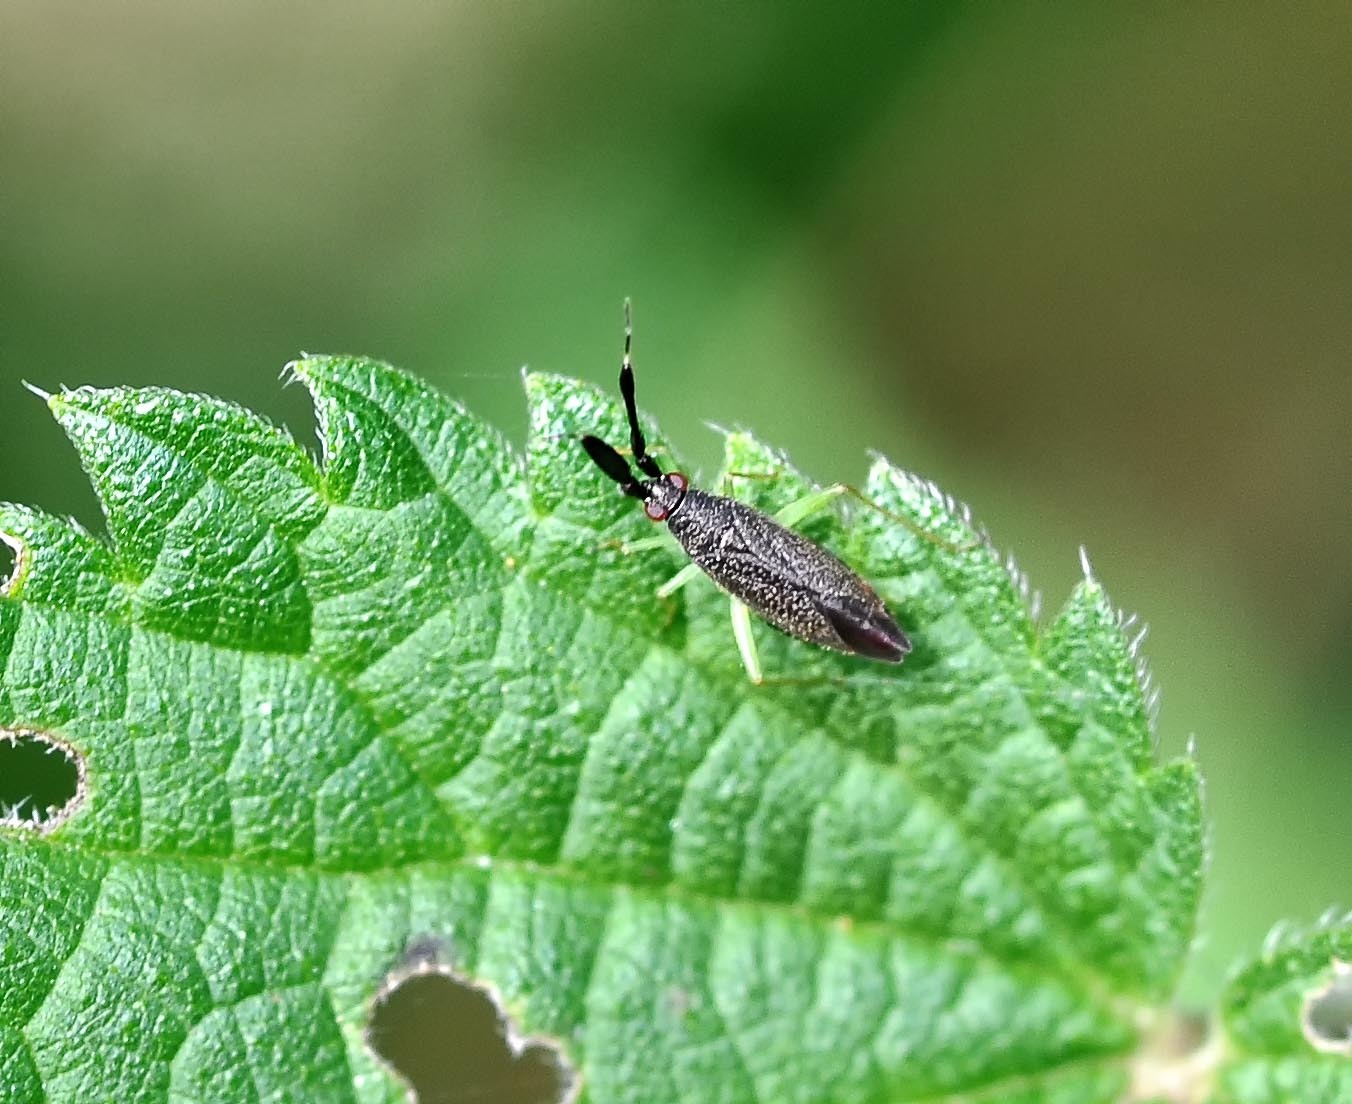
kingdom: Animalia
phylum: Arthropoda
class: Insecta
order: Hemiptera
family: Miridae
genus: Heterotoma
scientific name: Heterotoma planicornis
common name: Plant bug
